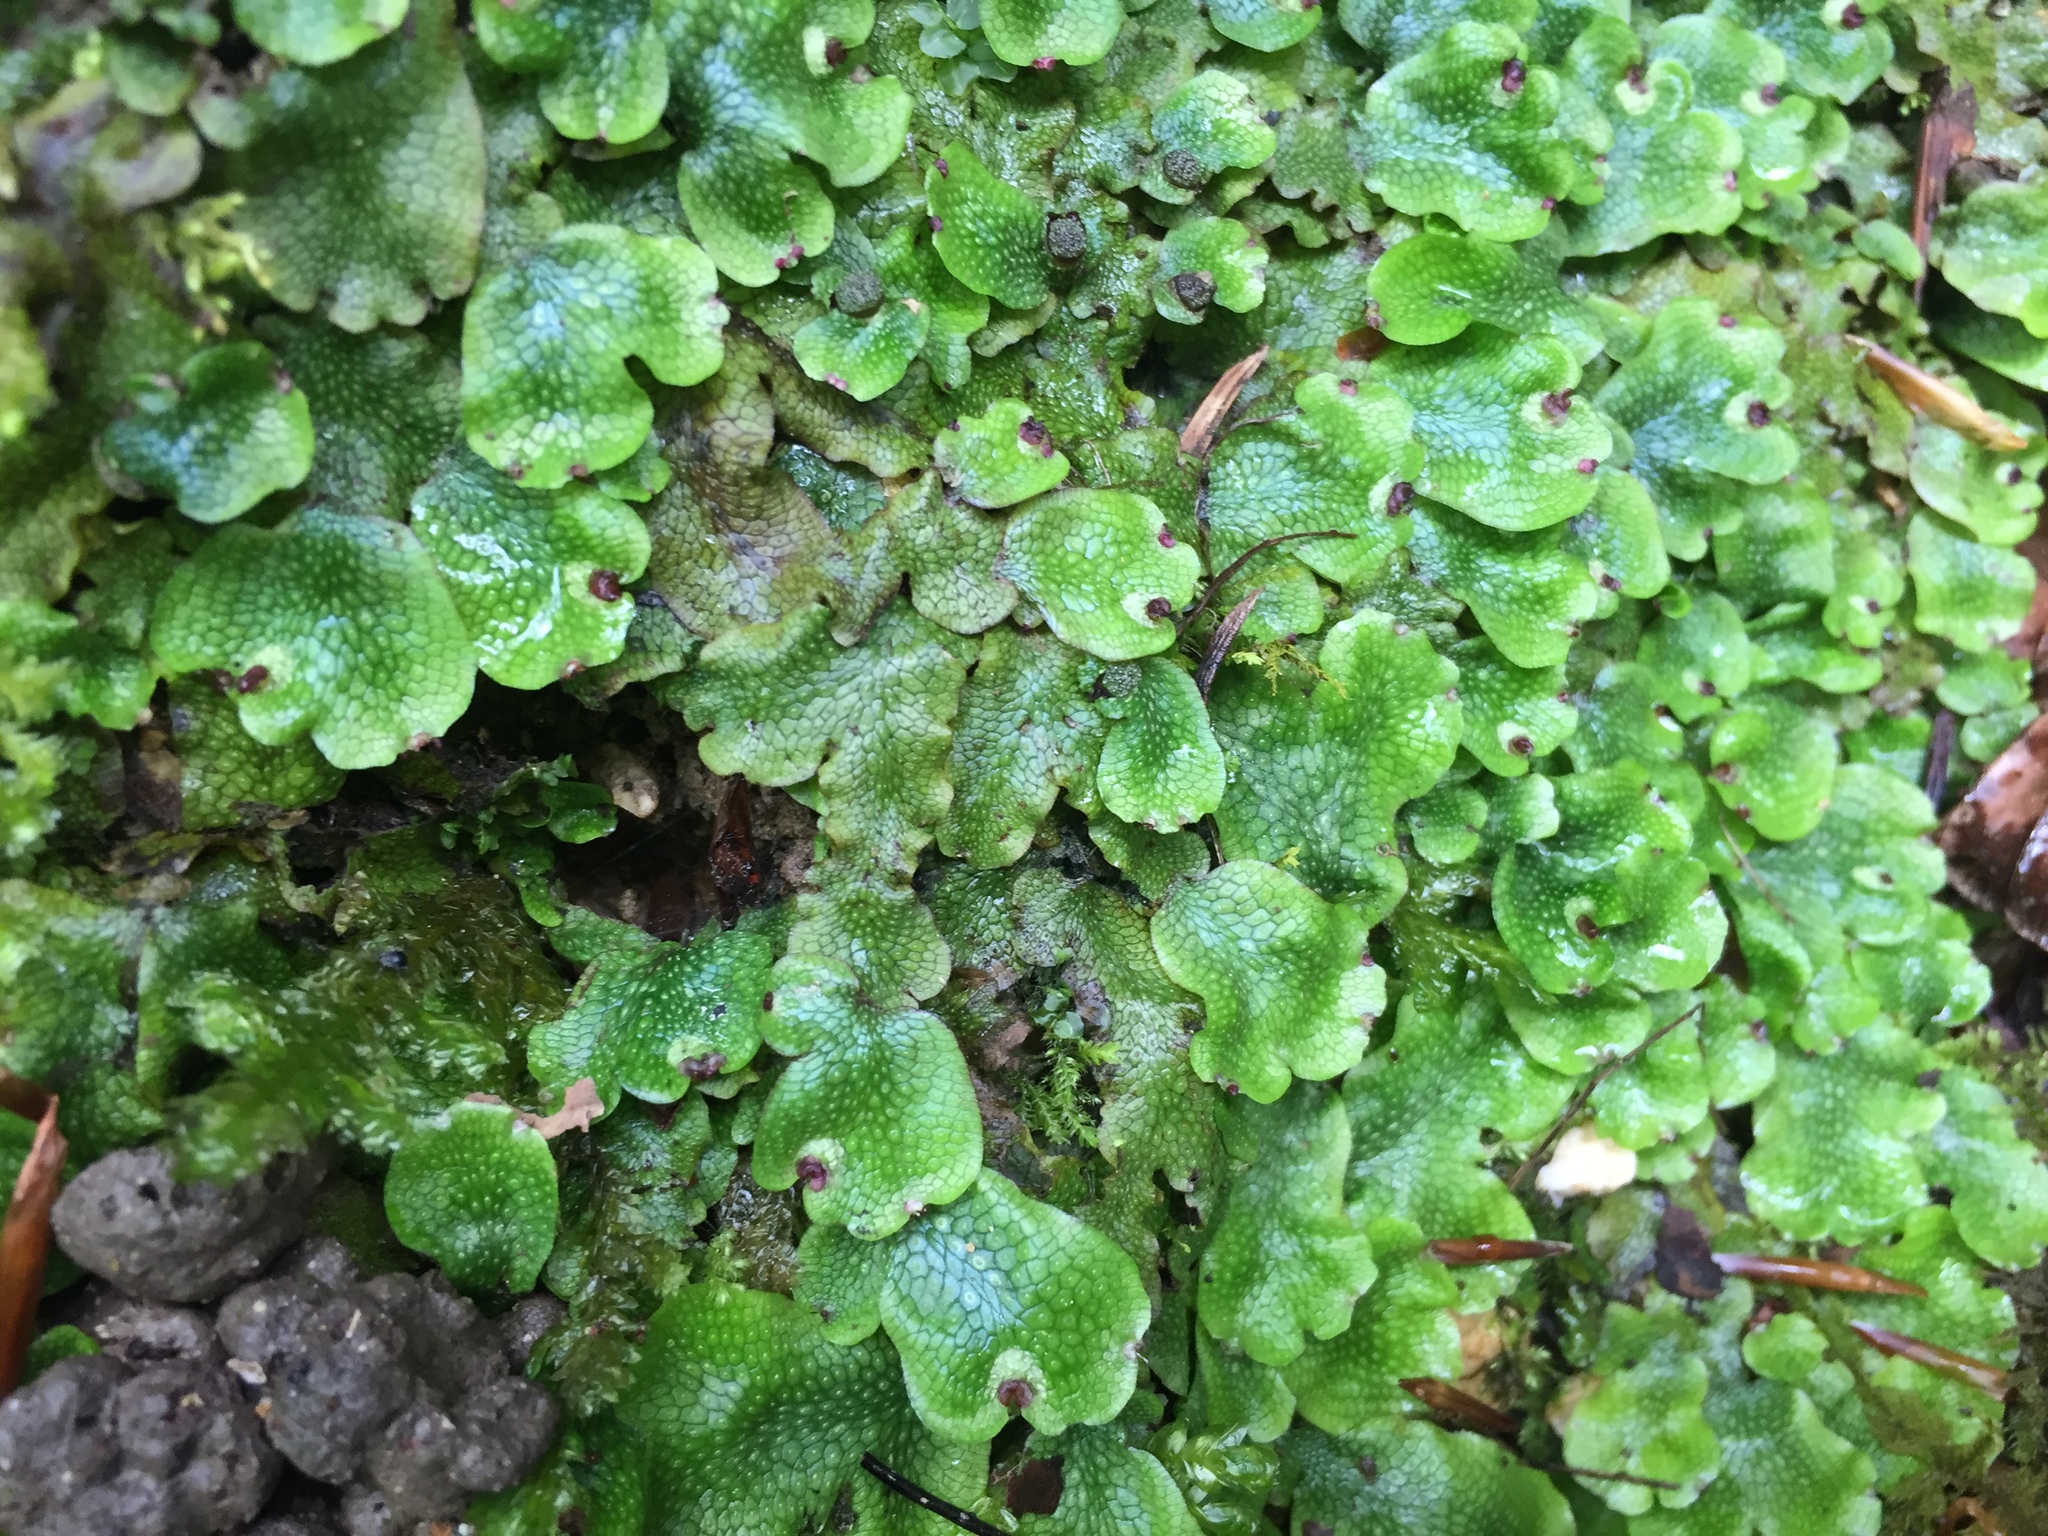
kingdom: Plantae
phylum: Marchantiophyta
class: Marchantiopsida
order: Marchantiales
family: Conocephalaceae
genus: Conocephalum
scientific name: Conocephalum salebrosum
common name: Cat-tongue liverwort
